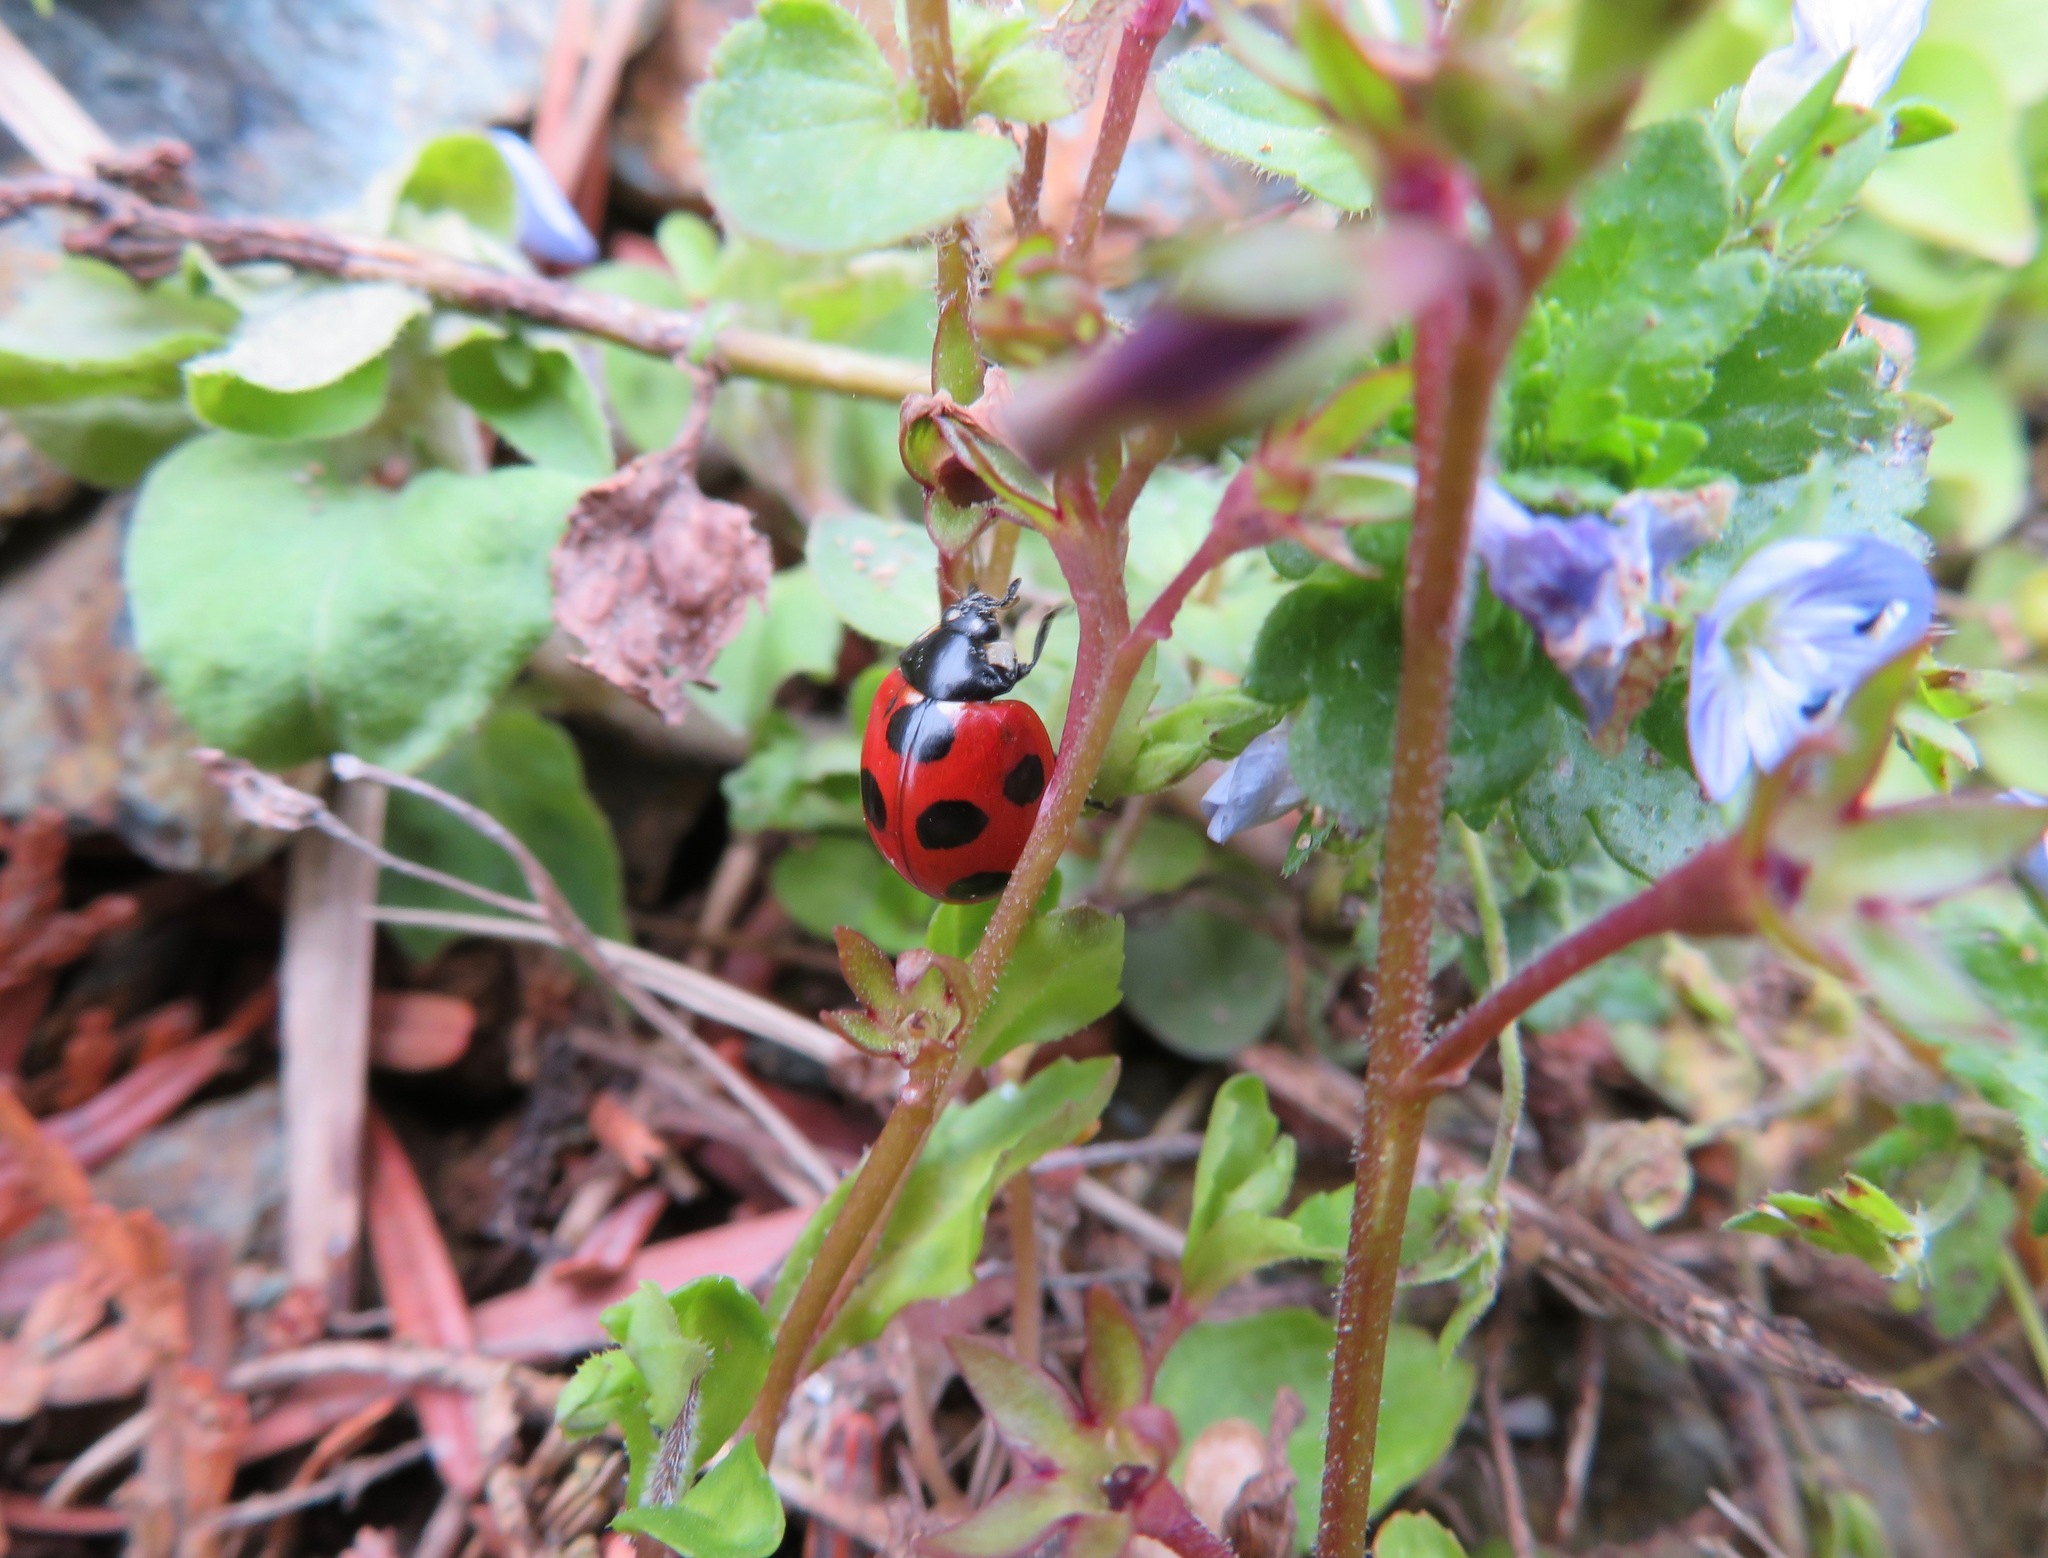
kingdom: Animalia
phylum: Arthropoda
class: Insecta
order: Coleoptera
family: Coccinellidae
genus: Coccinella
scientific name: Coccinella septempunctata
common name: Sevenspotted lady beetle
